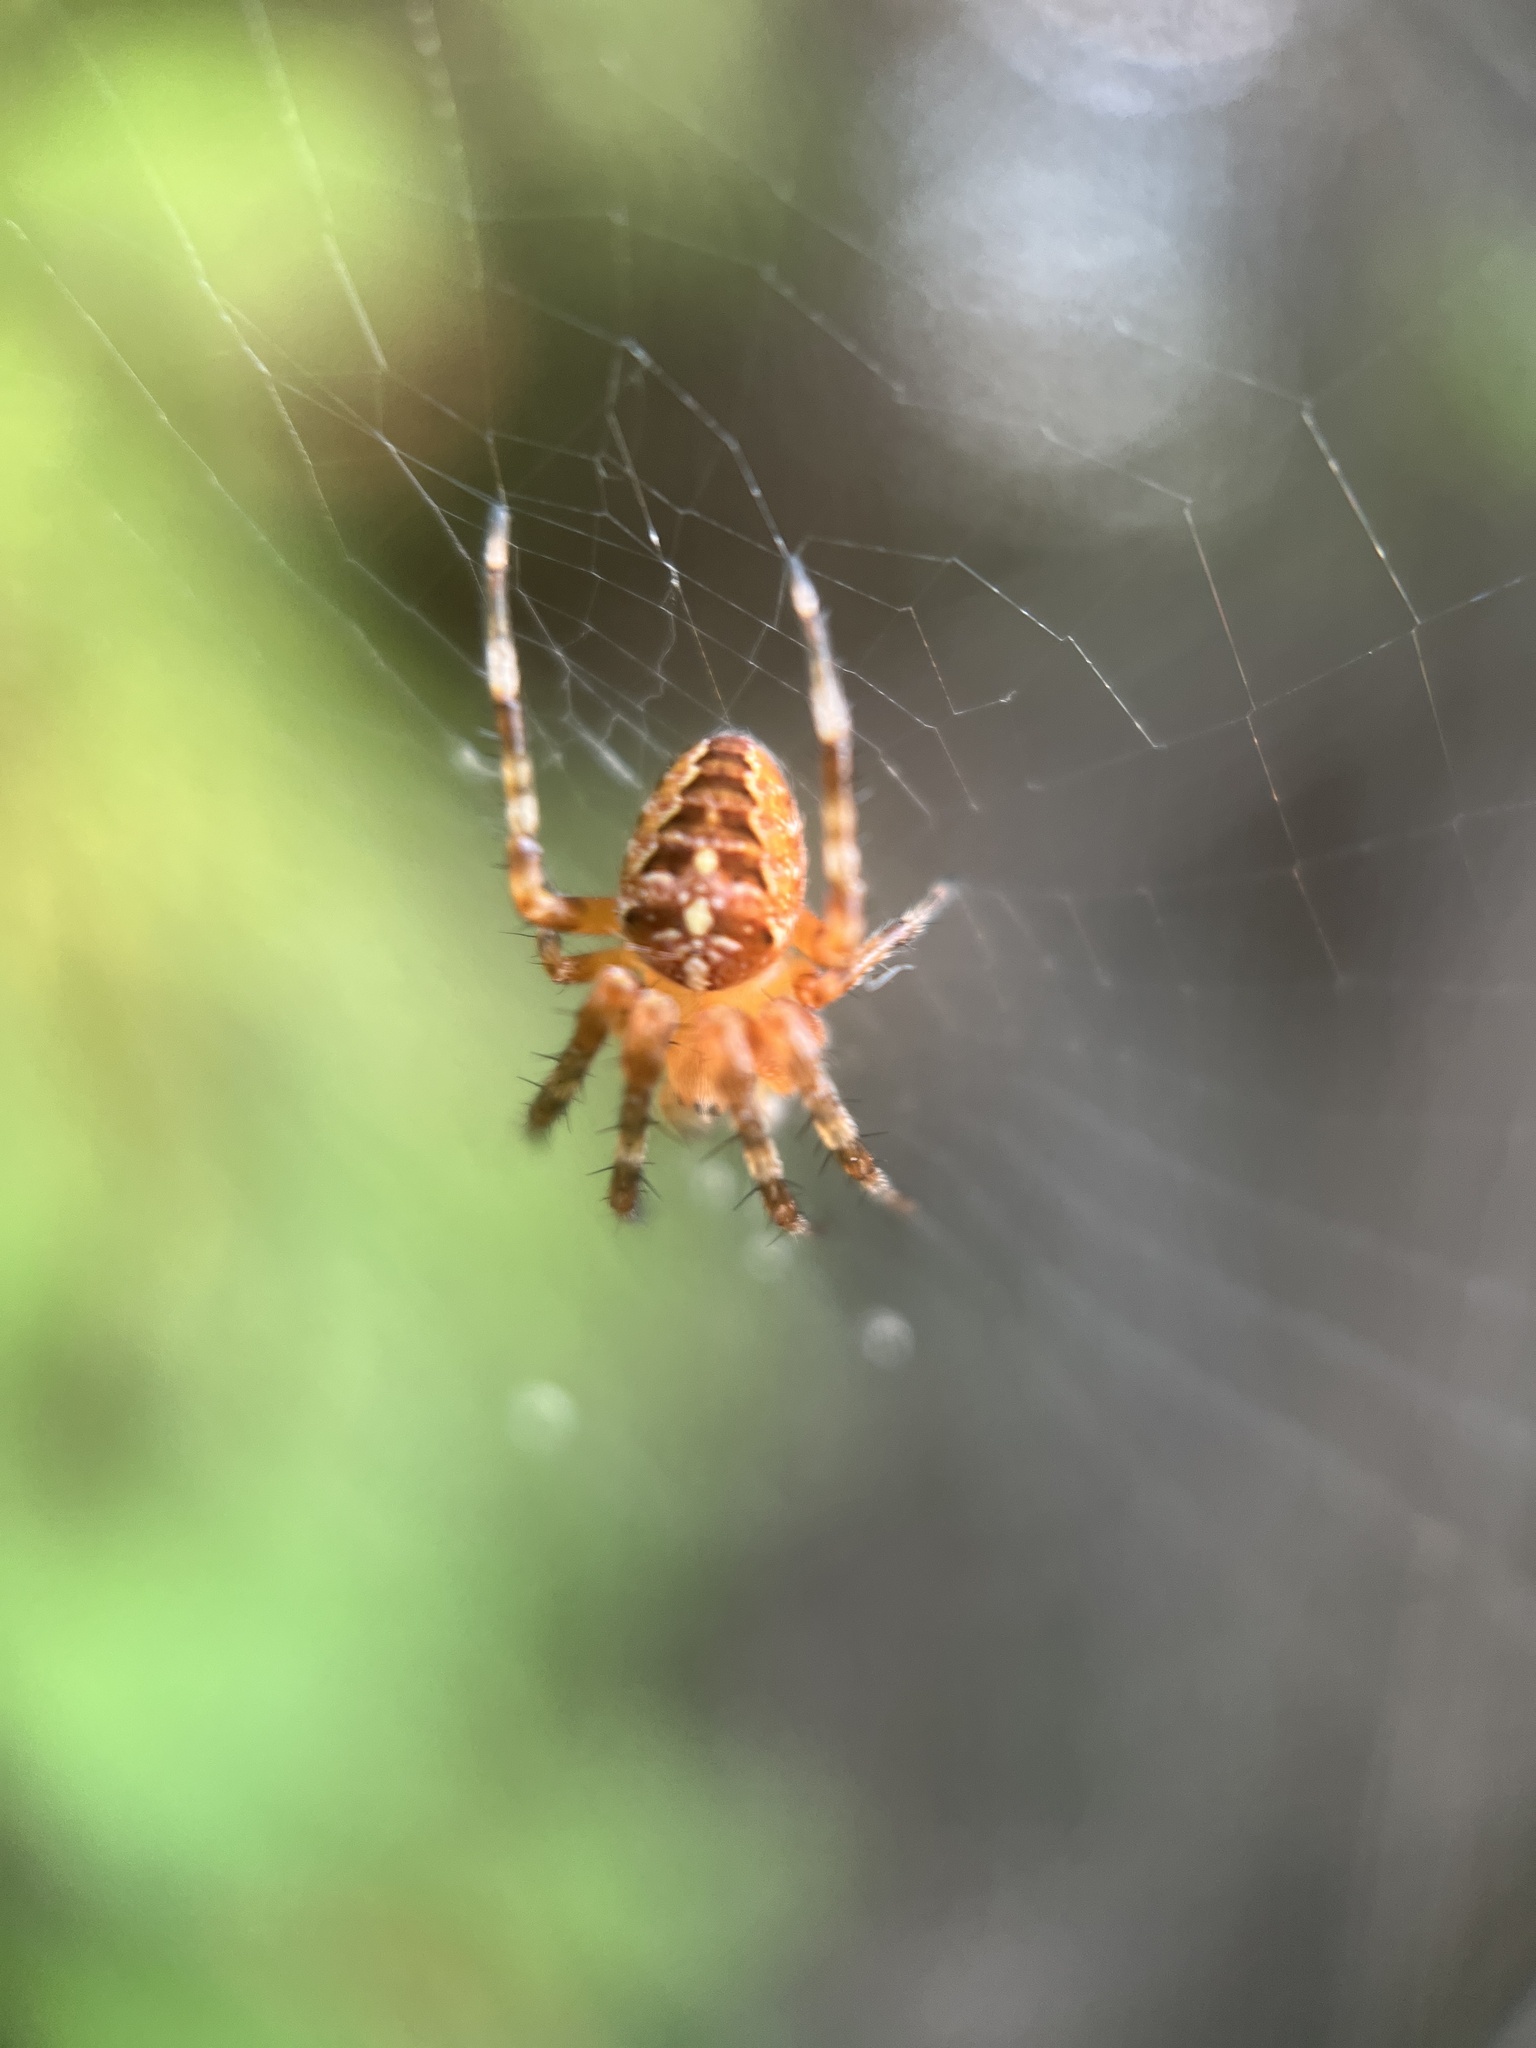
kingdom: Animalia
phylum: Arthropoda
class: Arachnida
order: Araneae
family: Araneidae
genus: Araneus
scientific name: Araneus diadematus
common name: Cross orbweaver
